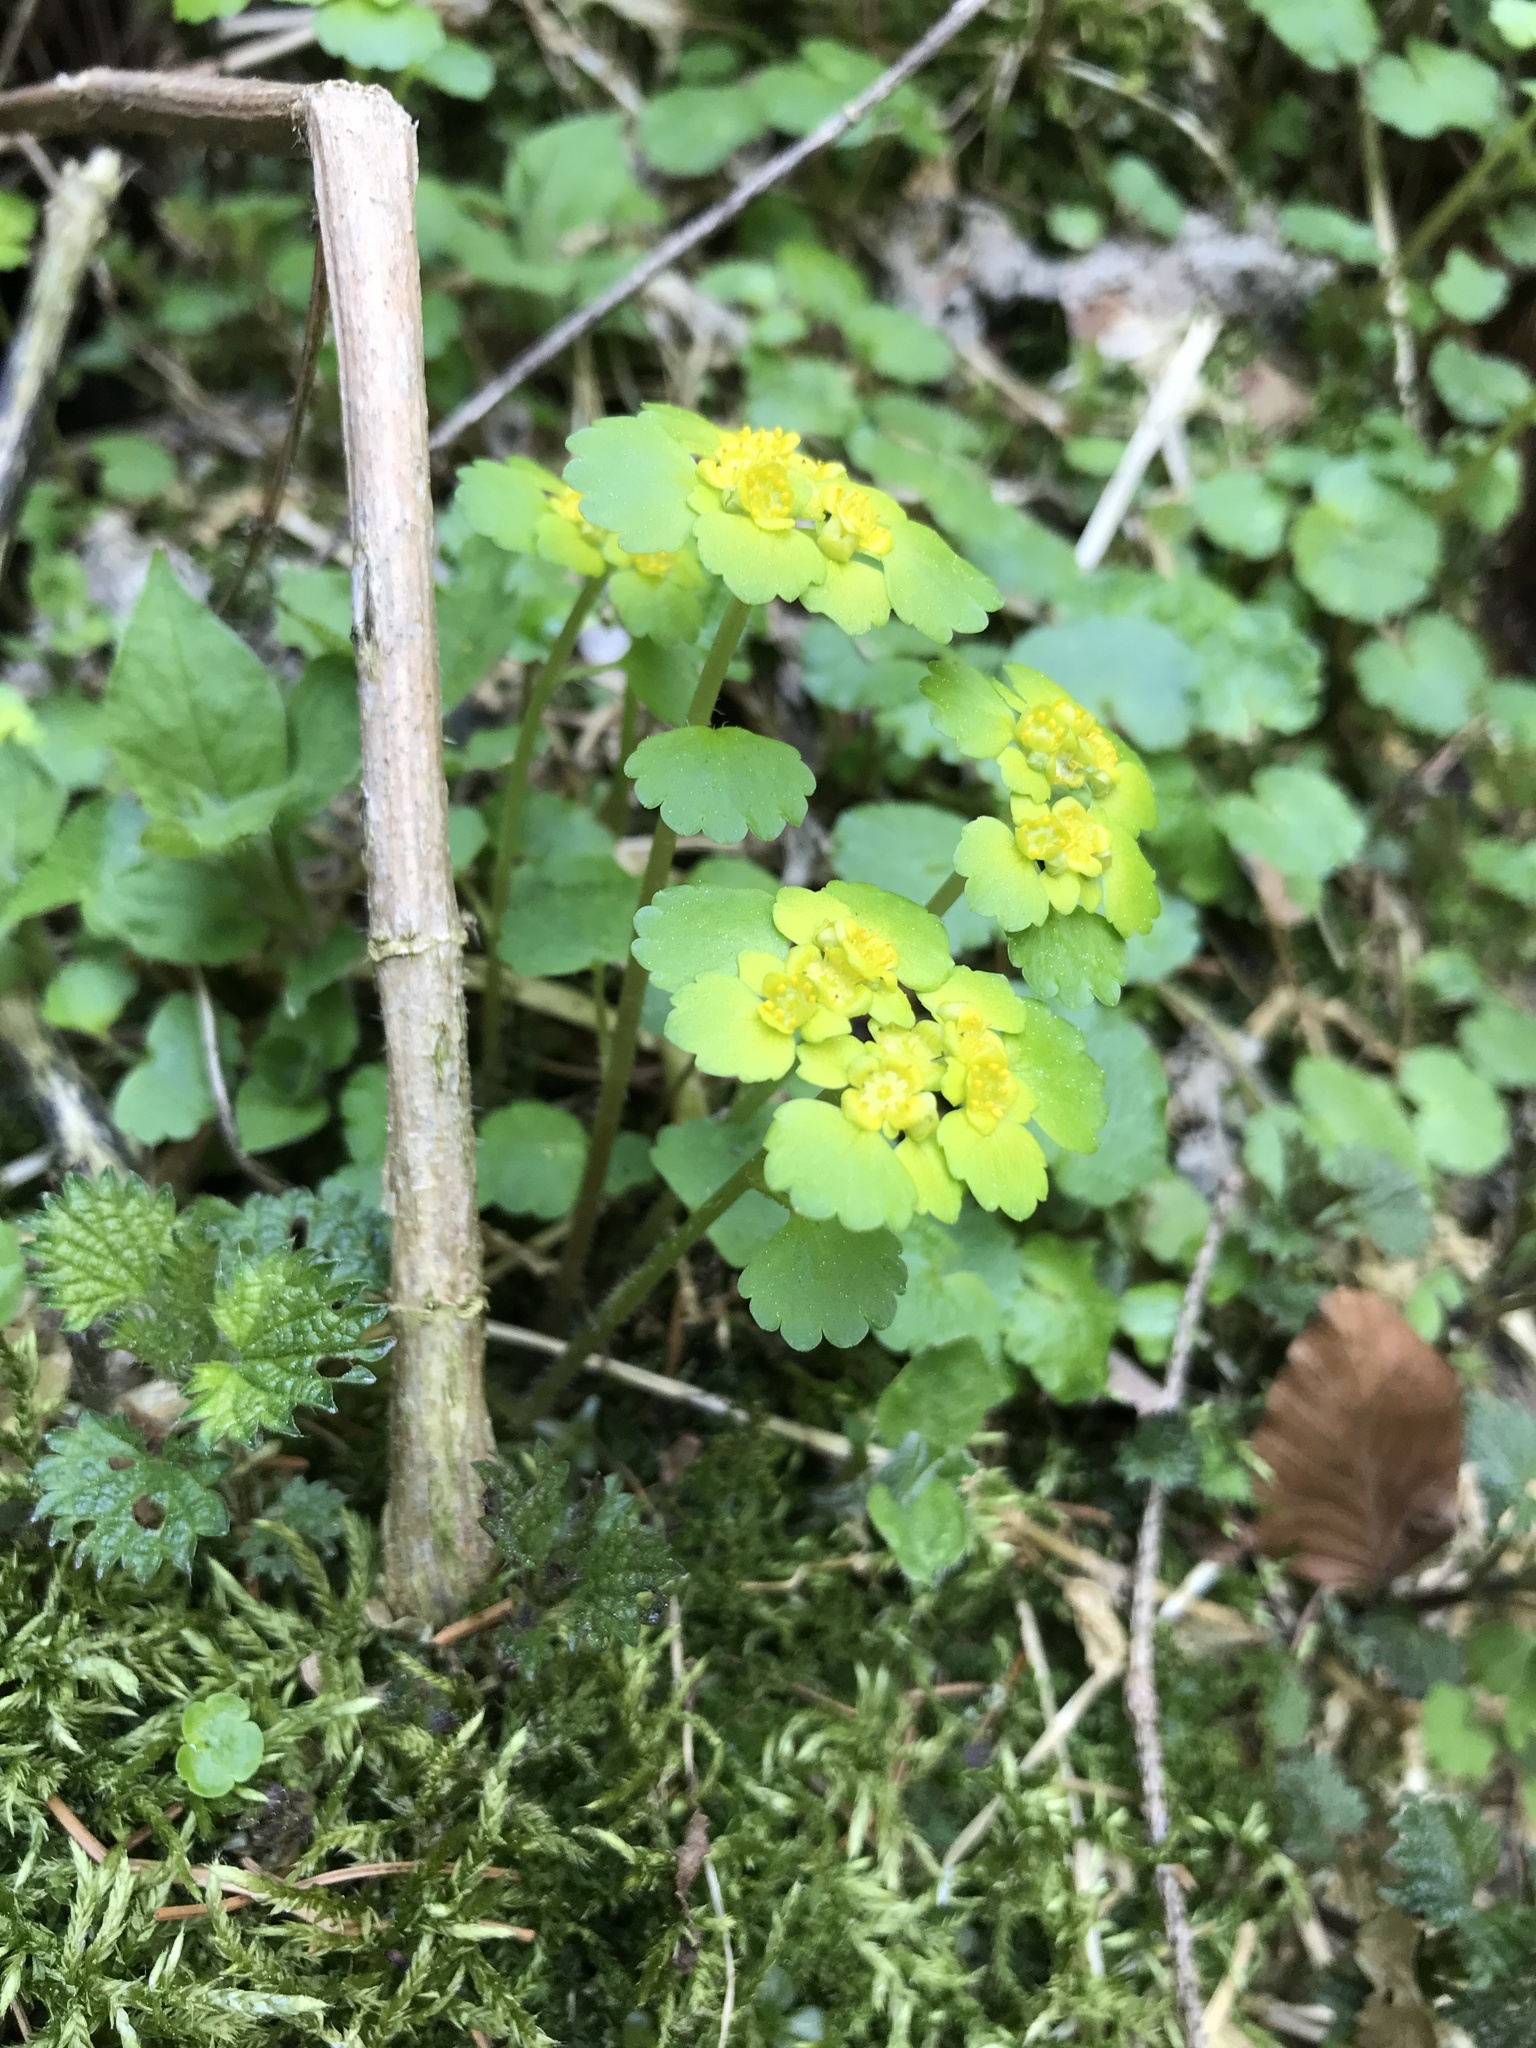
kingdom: Plantae
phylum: Tracheophyta
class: Magnoliopsida
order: Saxifragales
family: Saxifragaceae
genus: Chrysosplenium
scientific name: Chrysosplenium alternifolium
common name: Alternate-leaved golden-saxifrage
